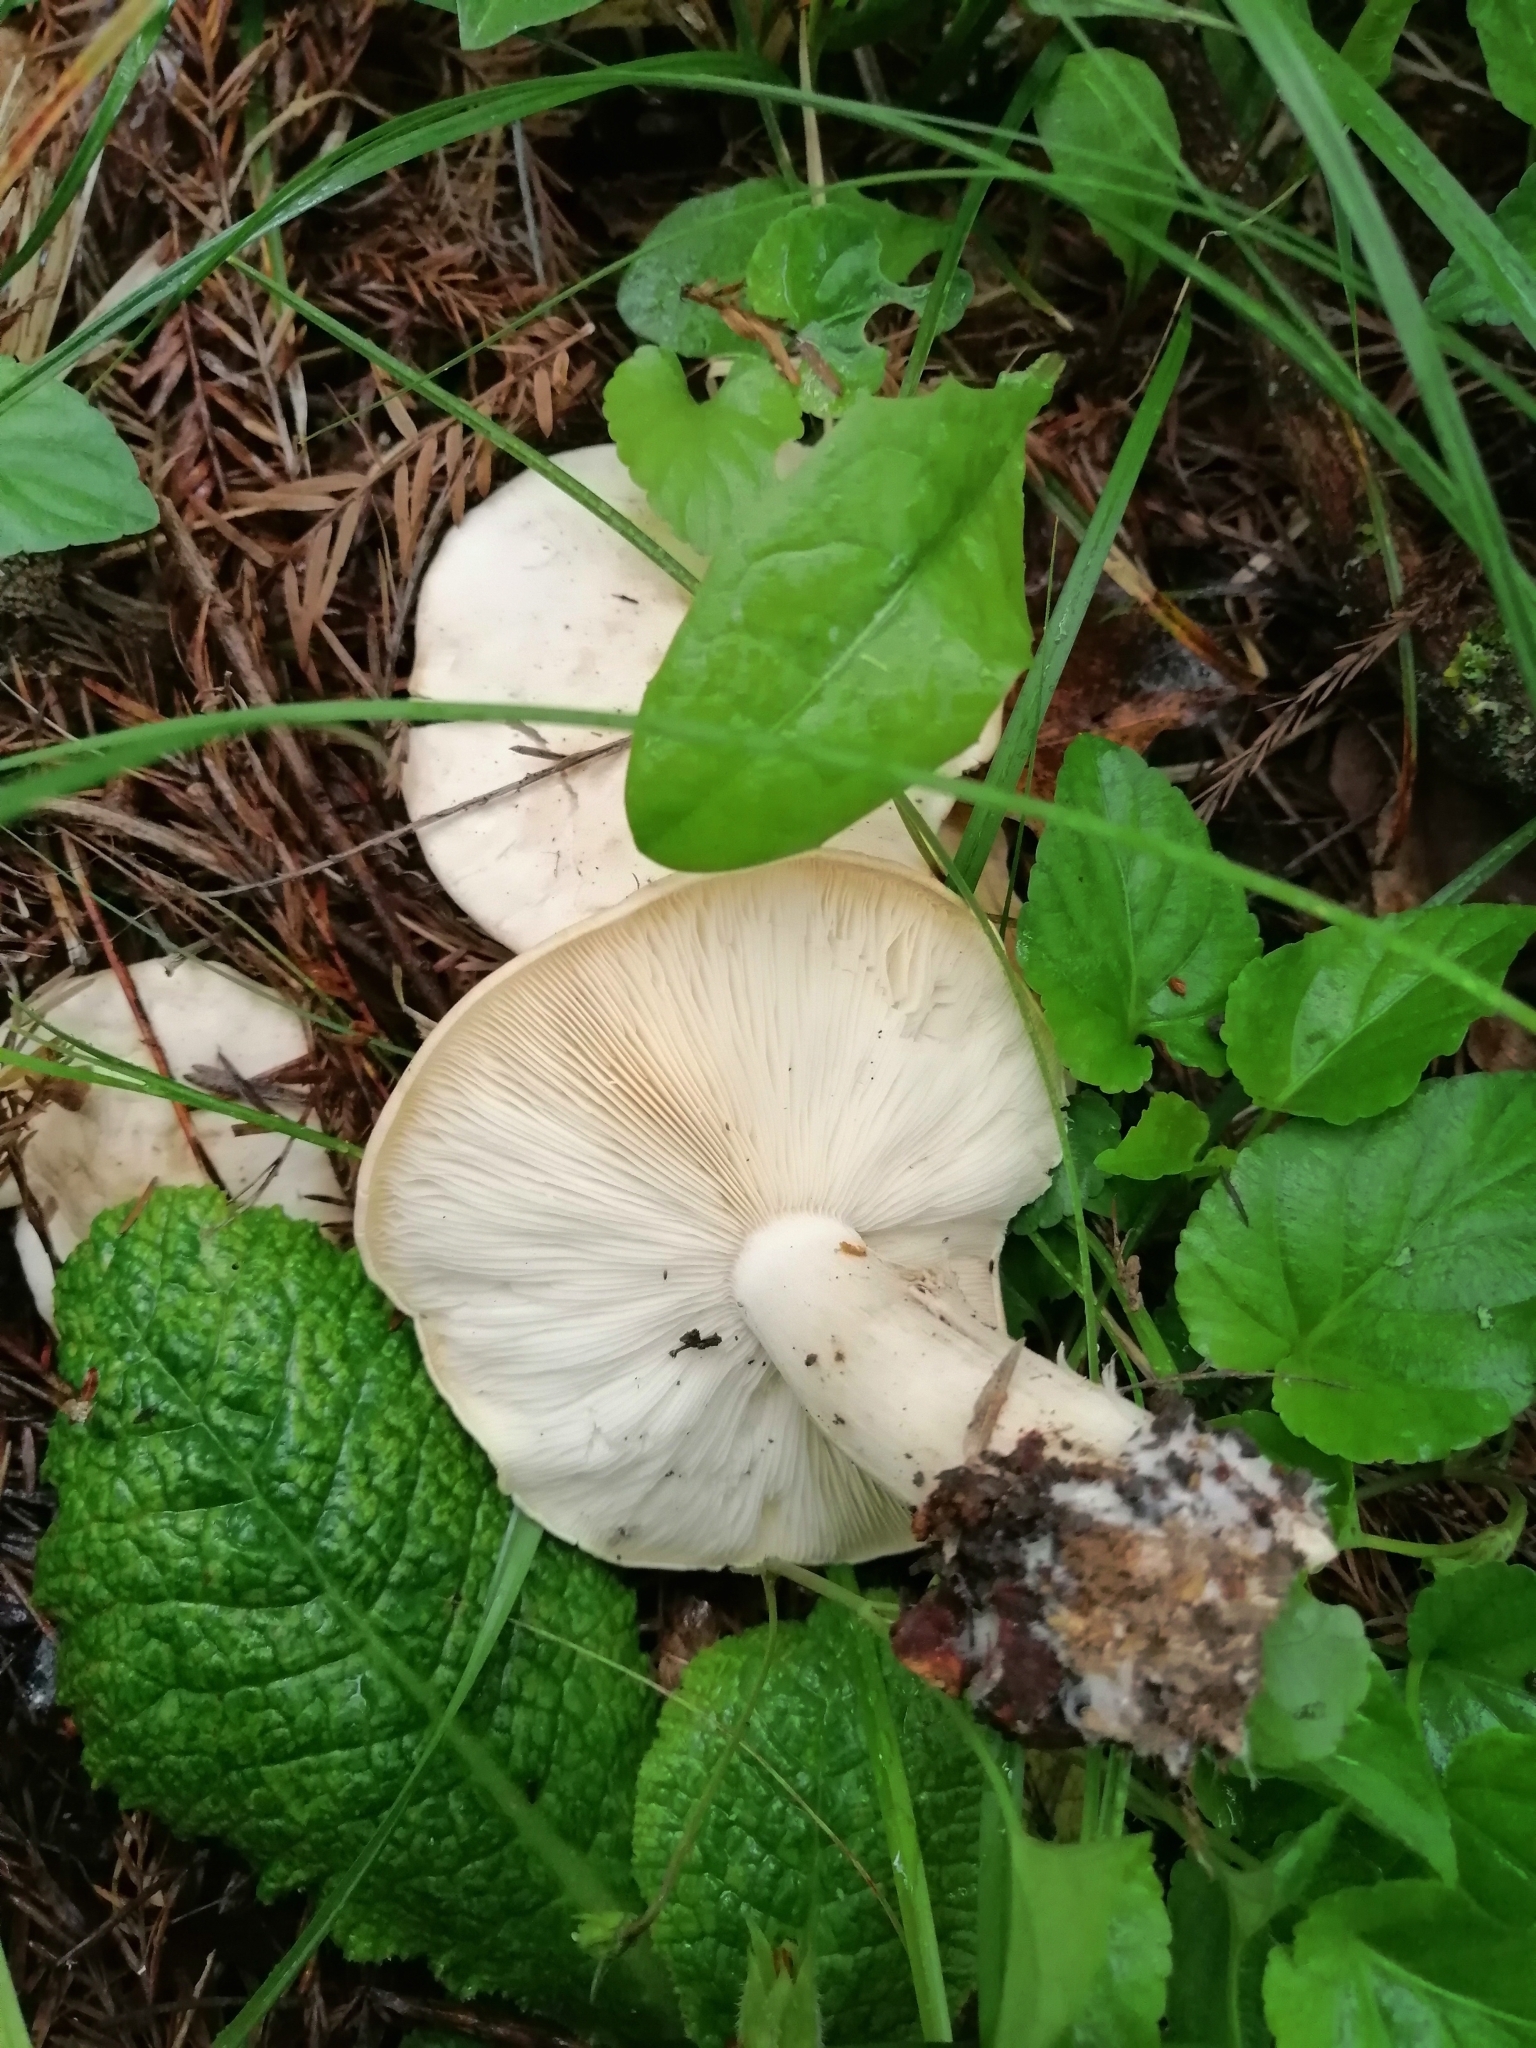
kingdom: Fungi
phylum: Basidiomycota
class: Agaricomycetes
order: Agaricales
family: Lyophyllaceae
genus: Calocybe
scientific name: Calocybe gambosa
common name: St. george's mushroom
